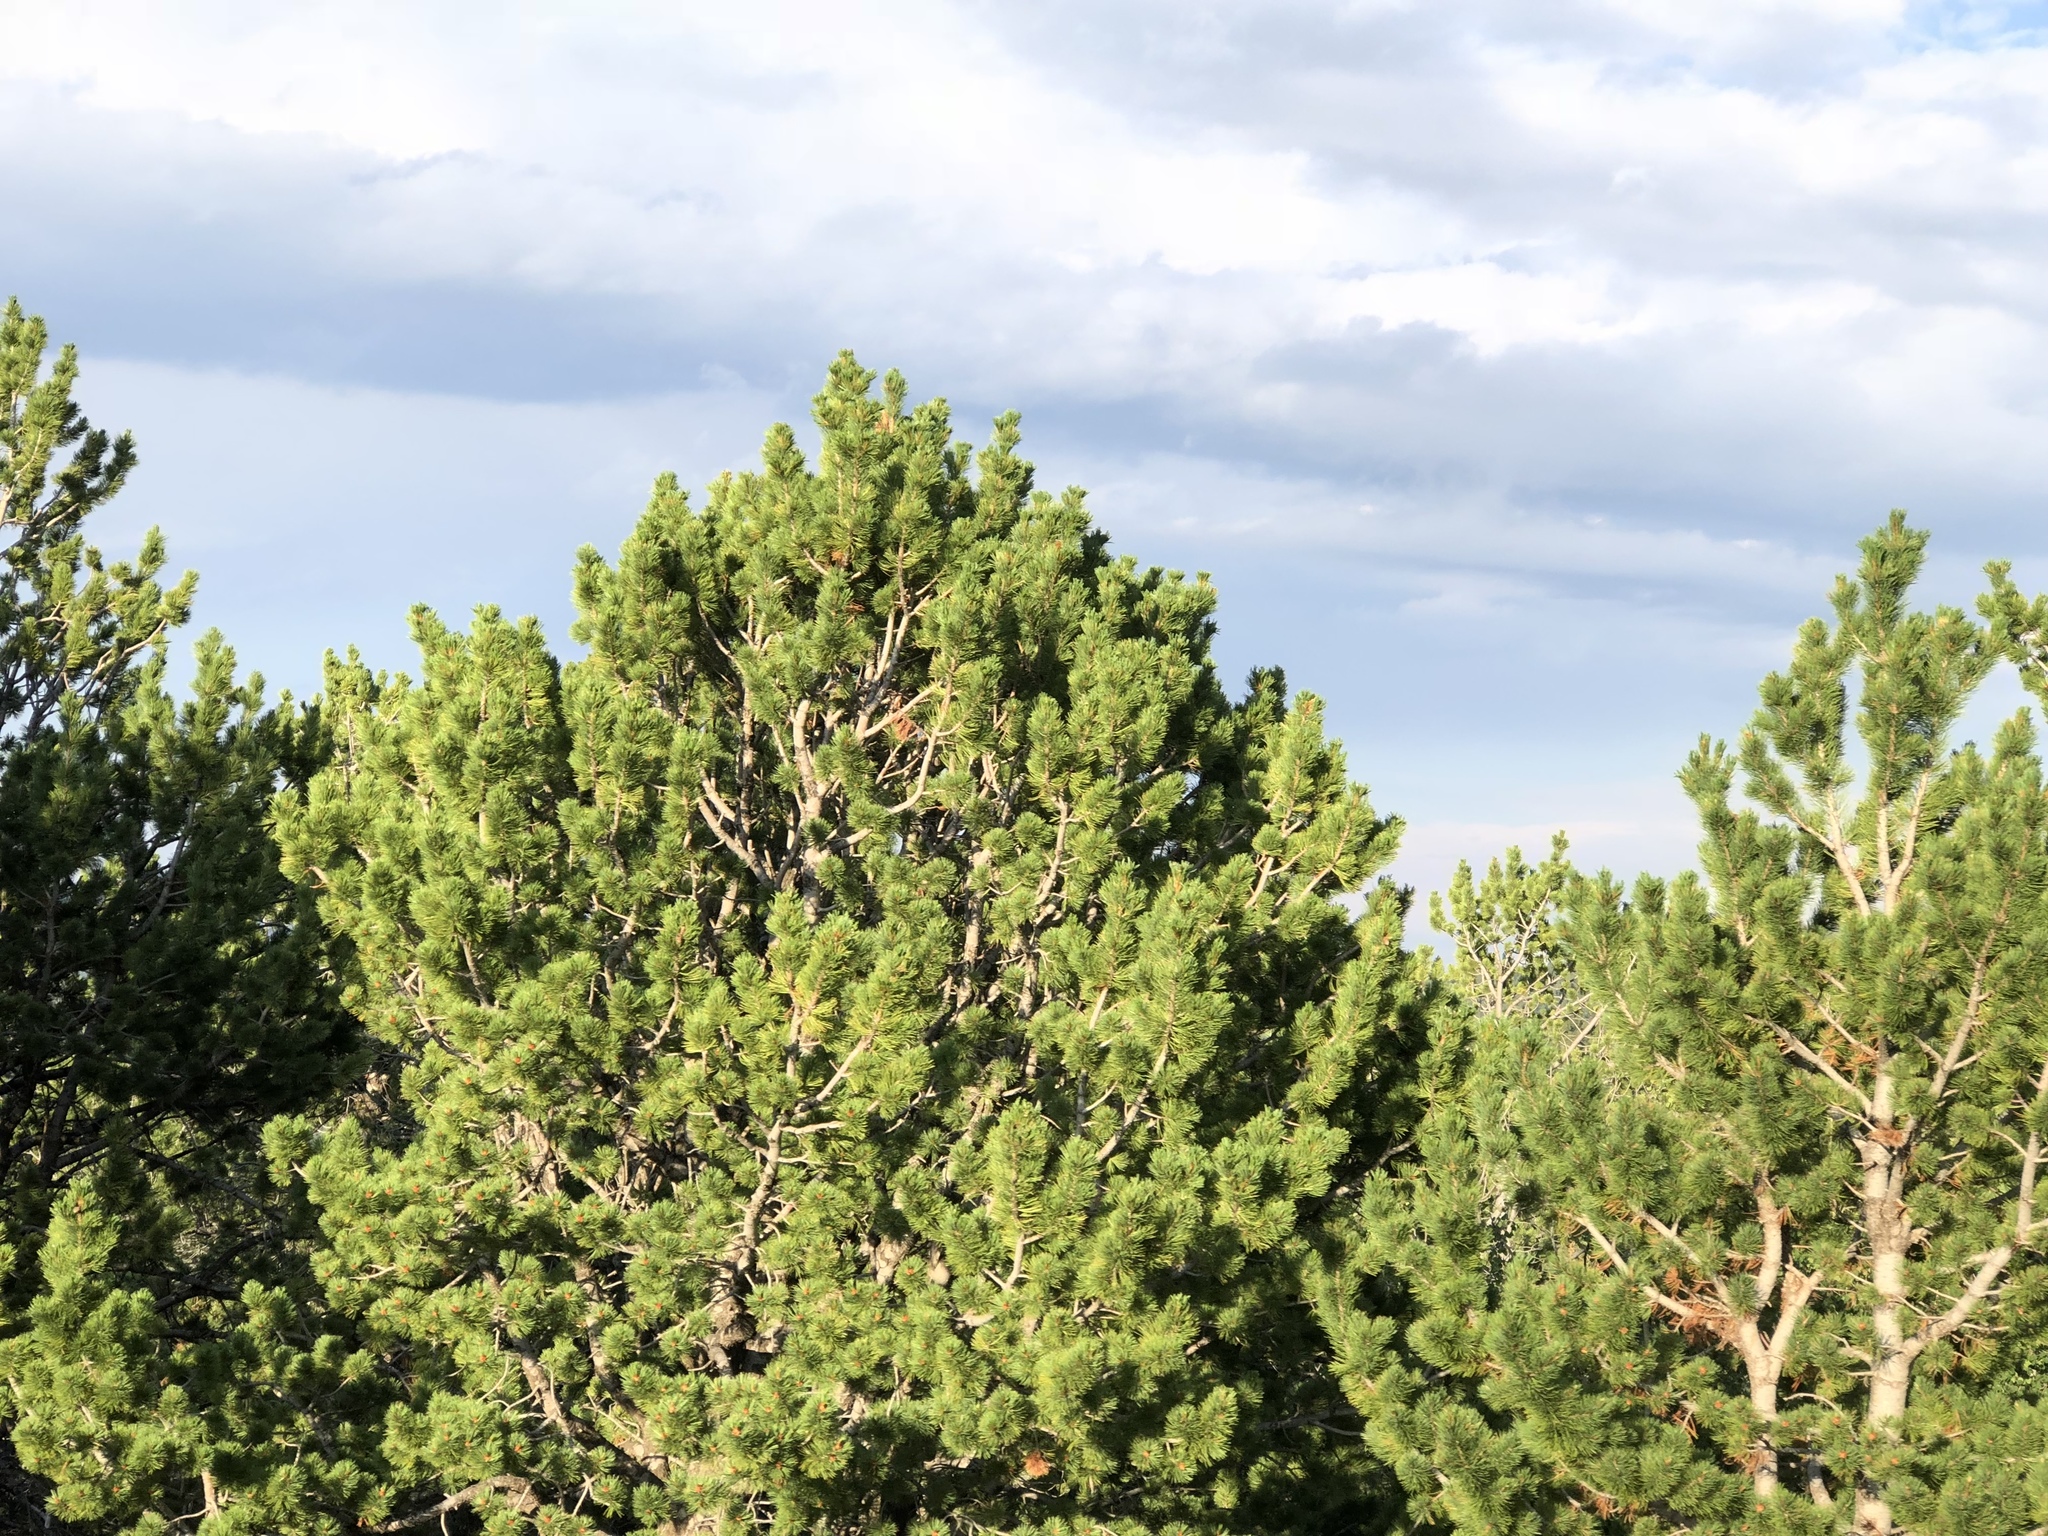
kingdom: Plantae
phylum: Tracheophyta
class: Pinopsida
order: Pinales
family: Pinaceae
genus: Pinus
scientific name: Pinus flexilis
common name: Limber pine
